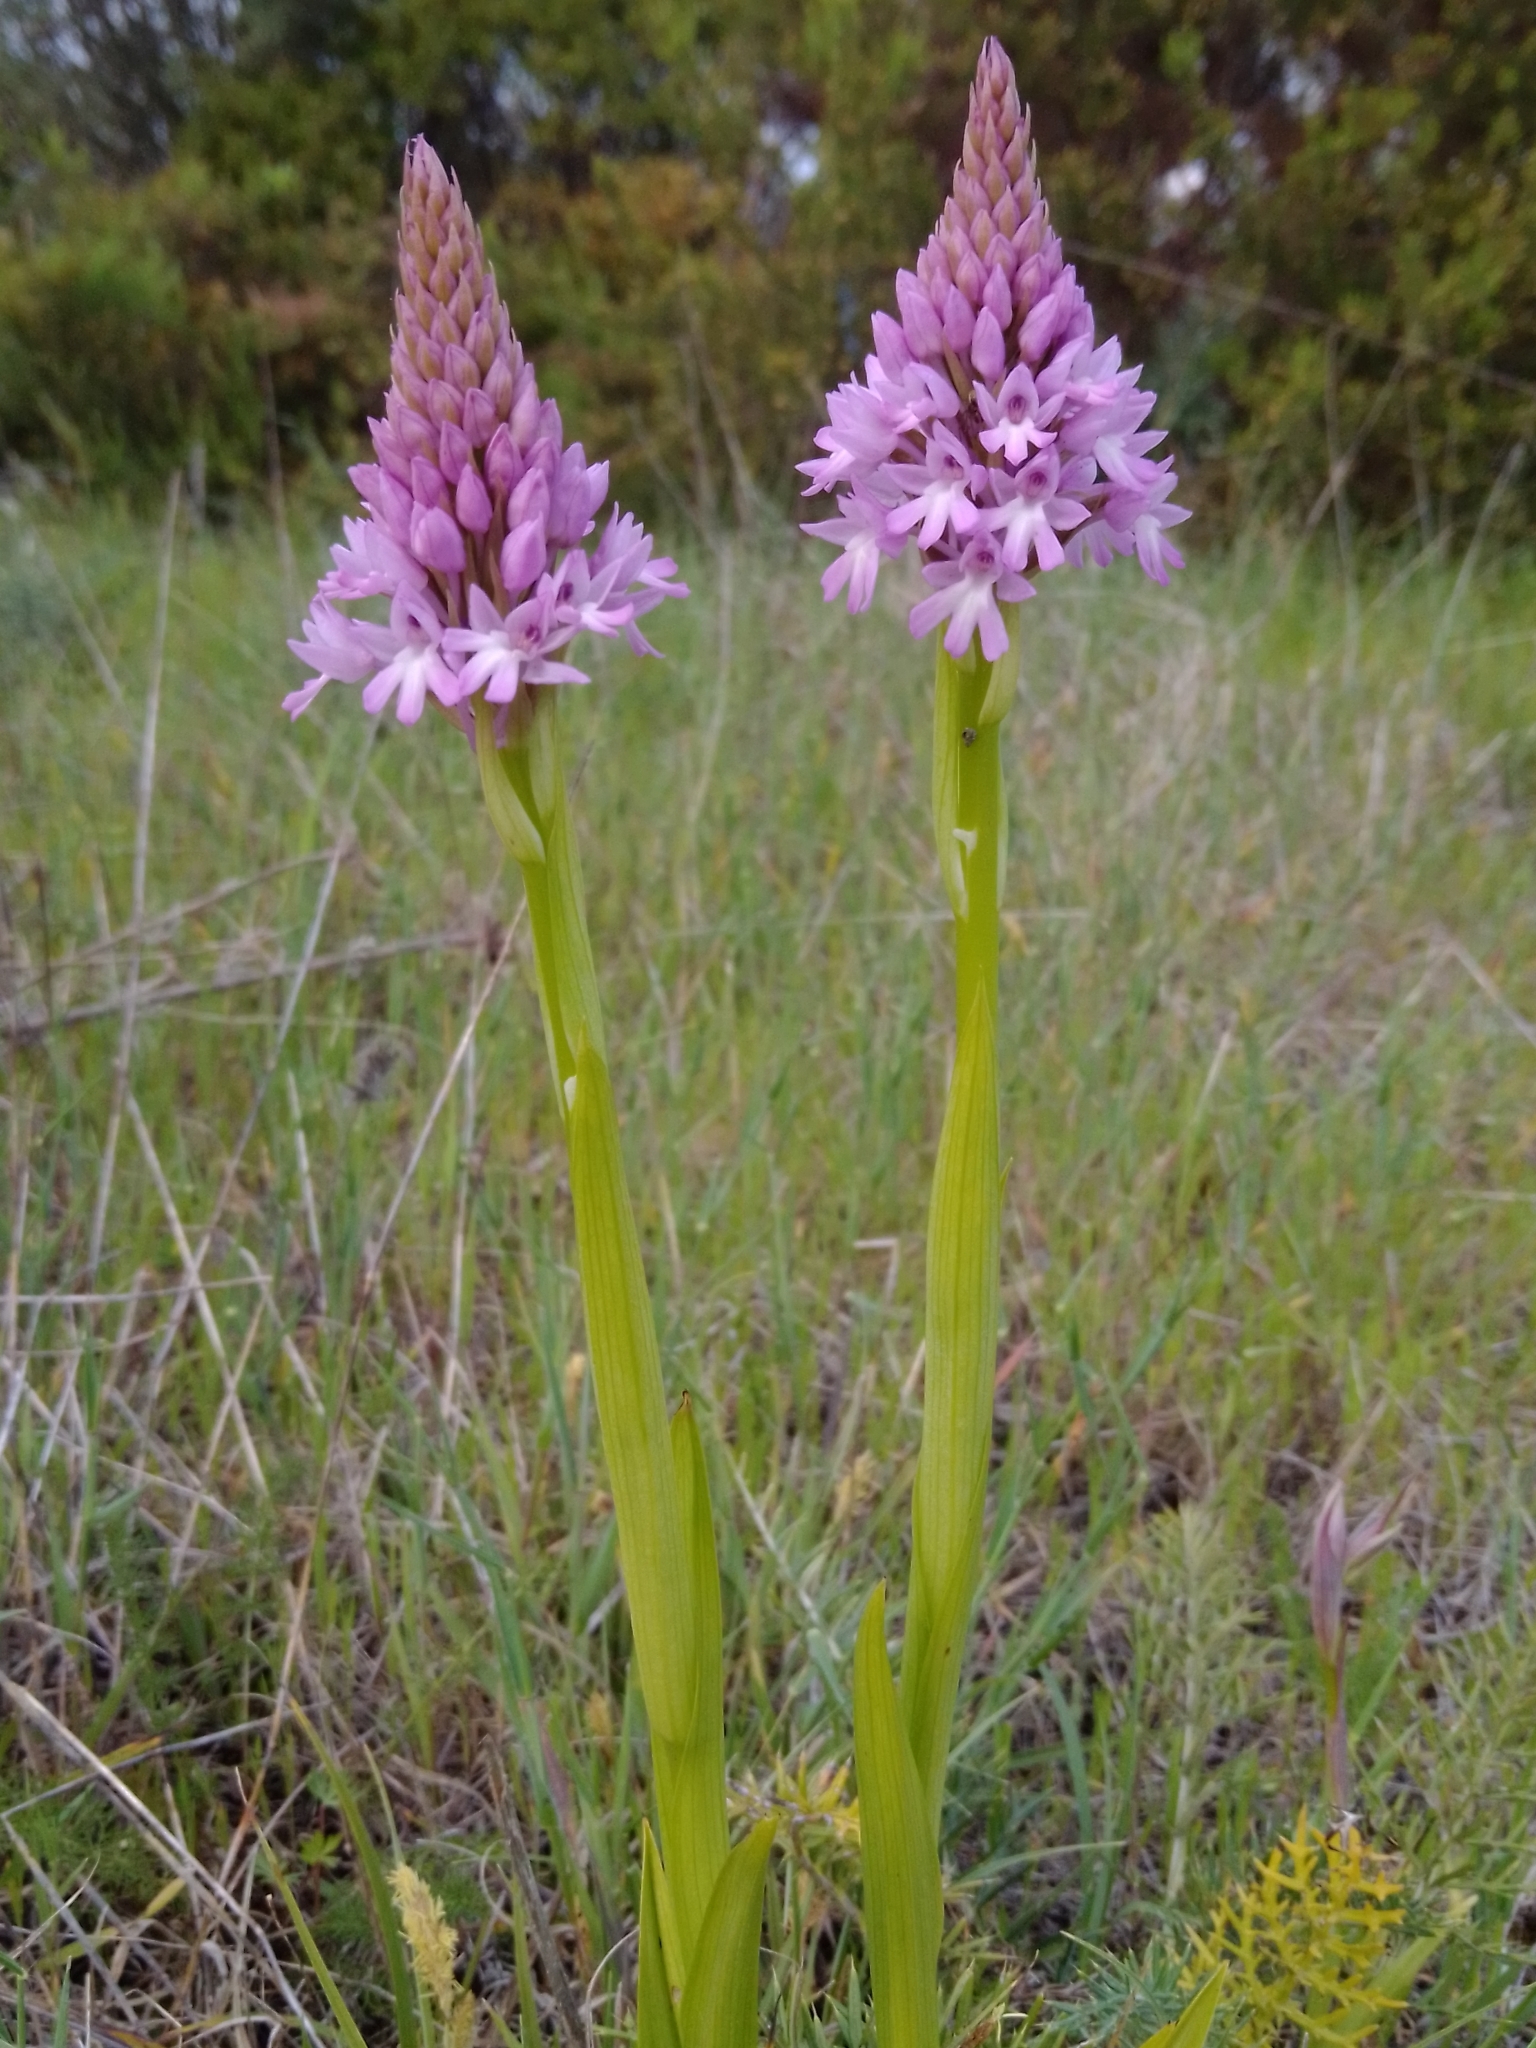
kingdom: Plantae
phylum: Tracheophyta
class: Liliopsida
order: Asparagales
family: Orchidaceae
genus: Anacamptis
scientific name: Anacamptis pyramidalis
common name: Pyramidal orchid
